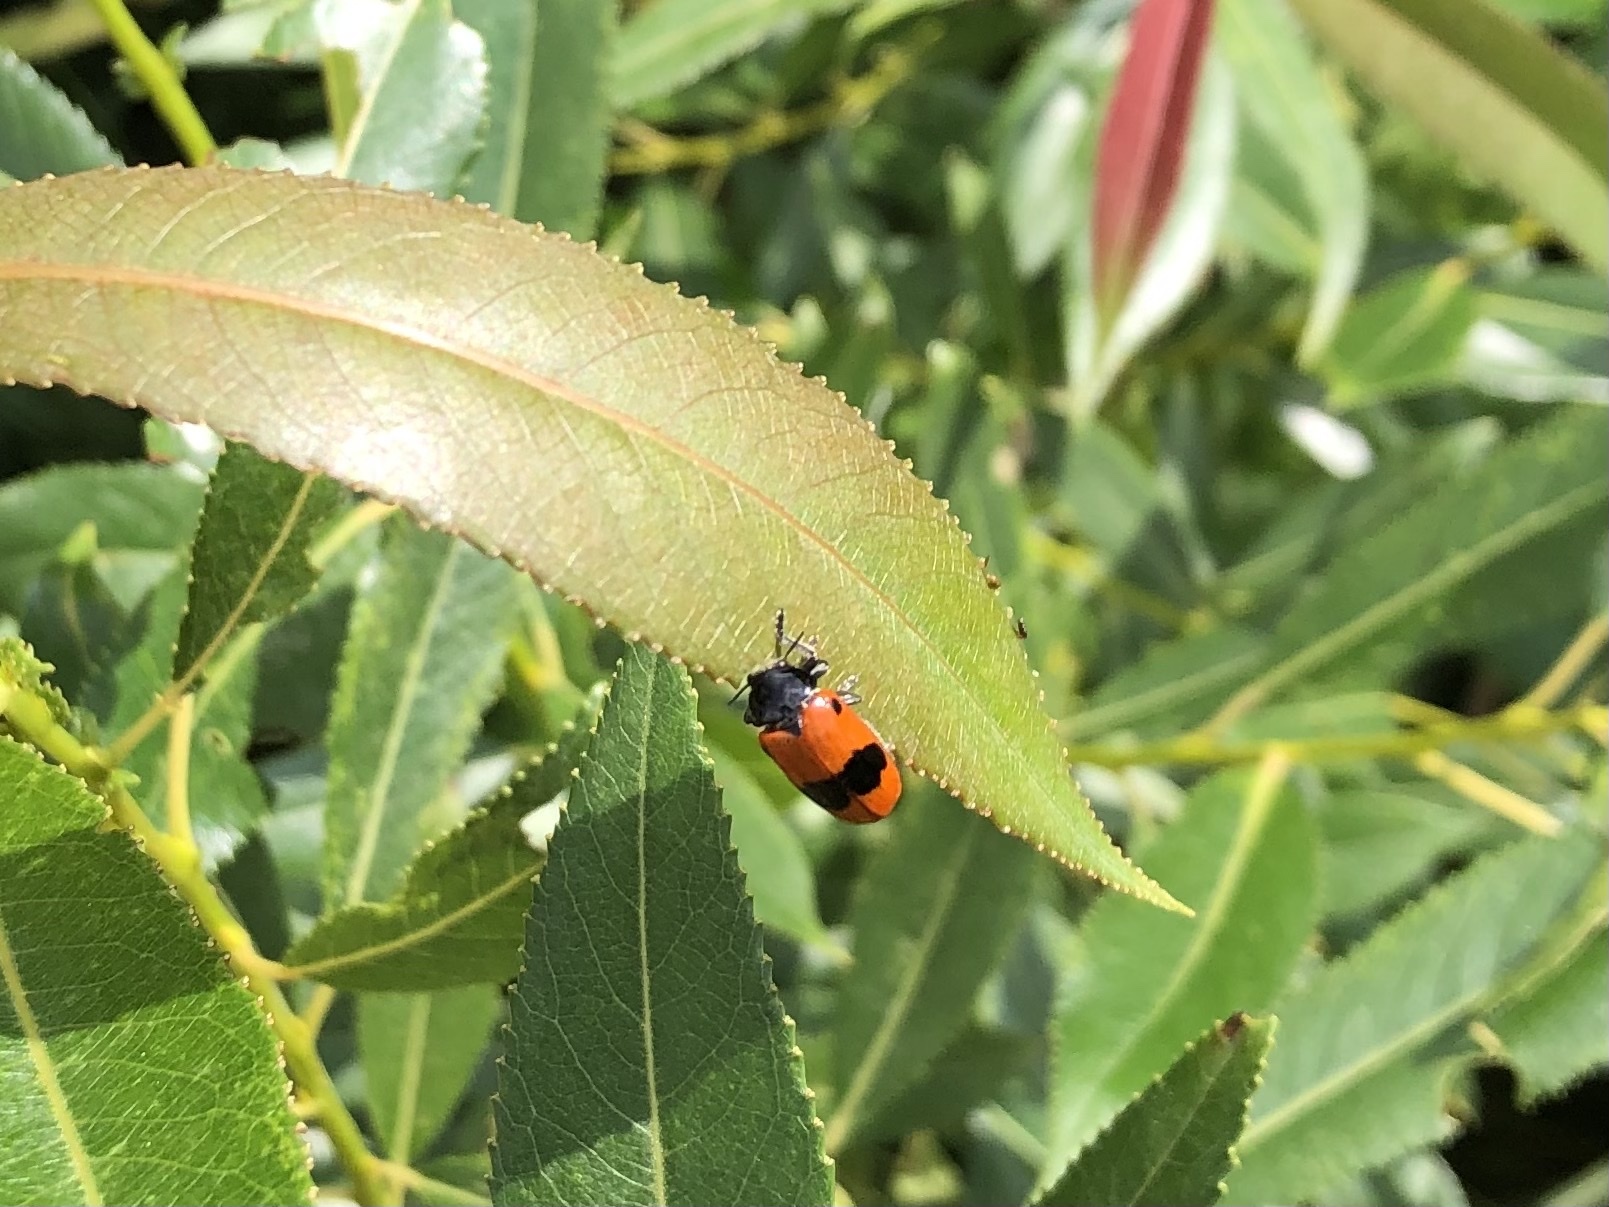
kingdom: Animalia
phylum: Arthropoda
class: Insecta
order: Coleoptera
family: Chrysomelidae
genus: Clytra
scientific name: Clytra laeviuscula
